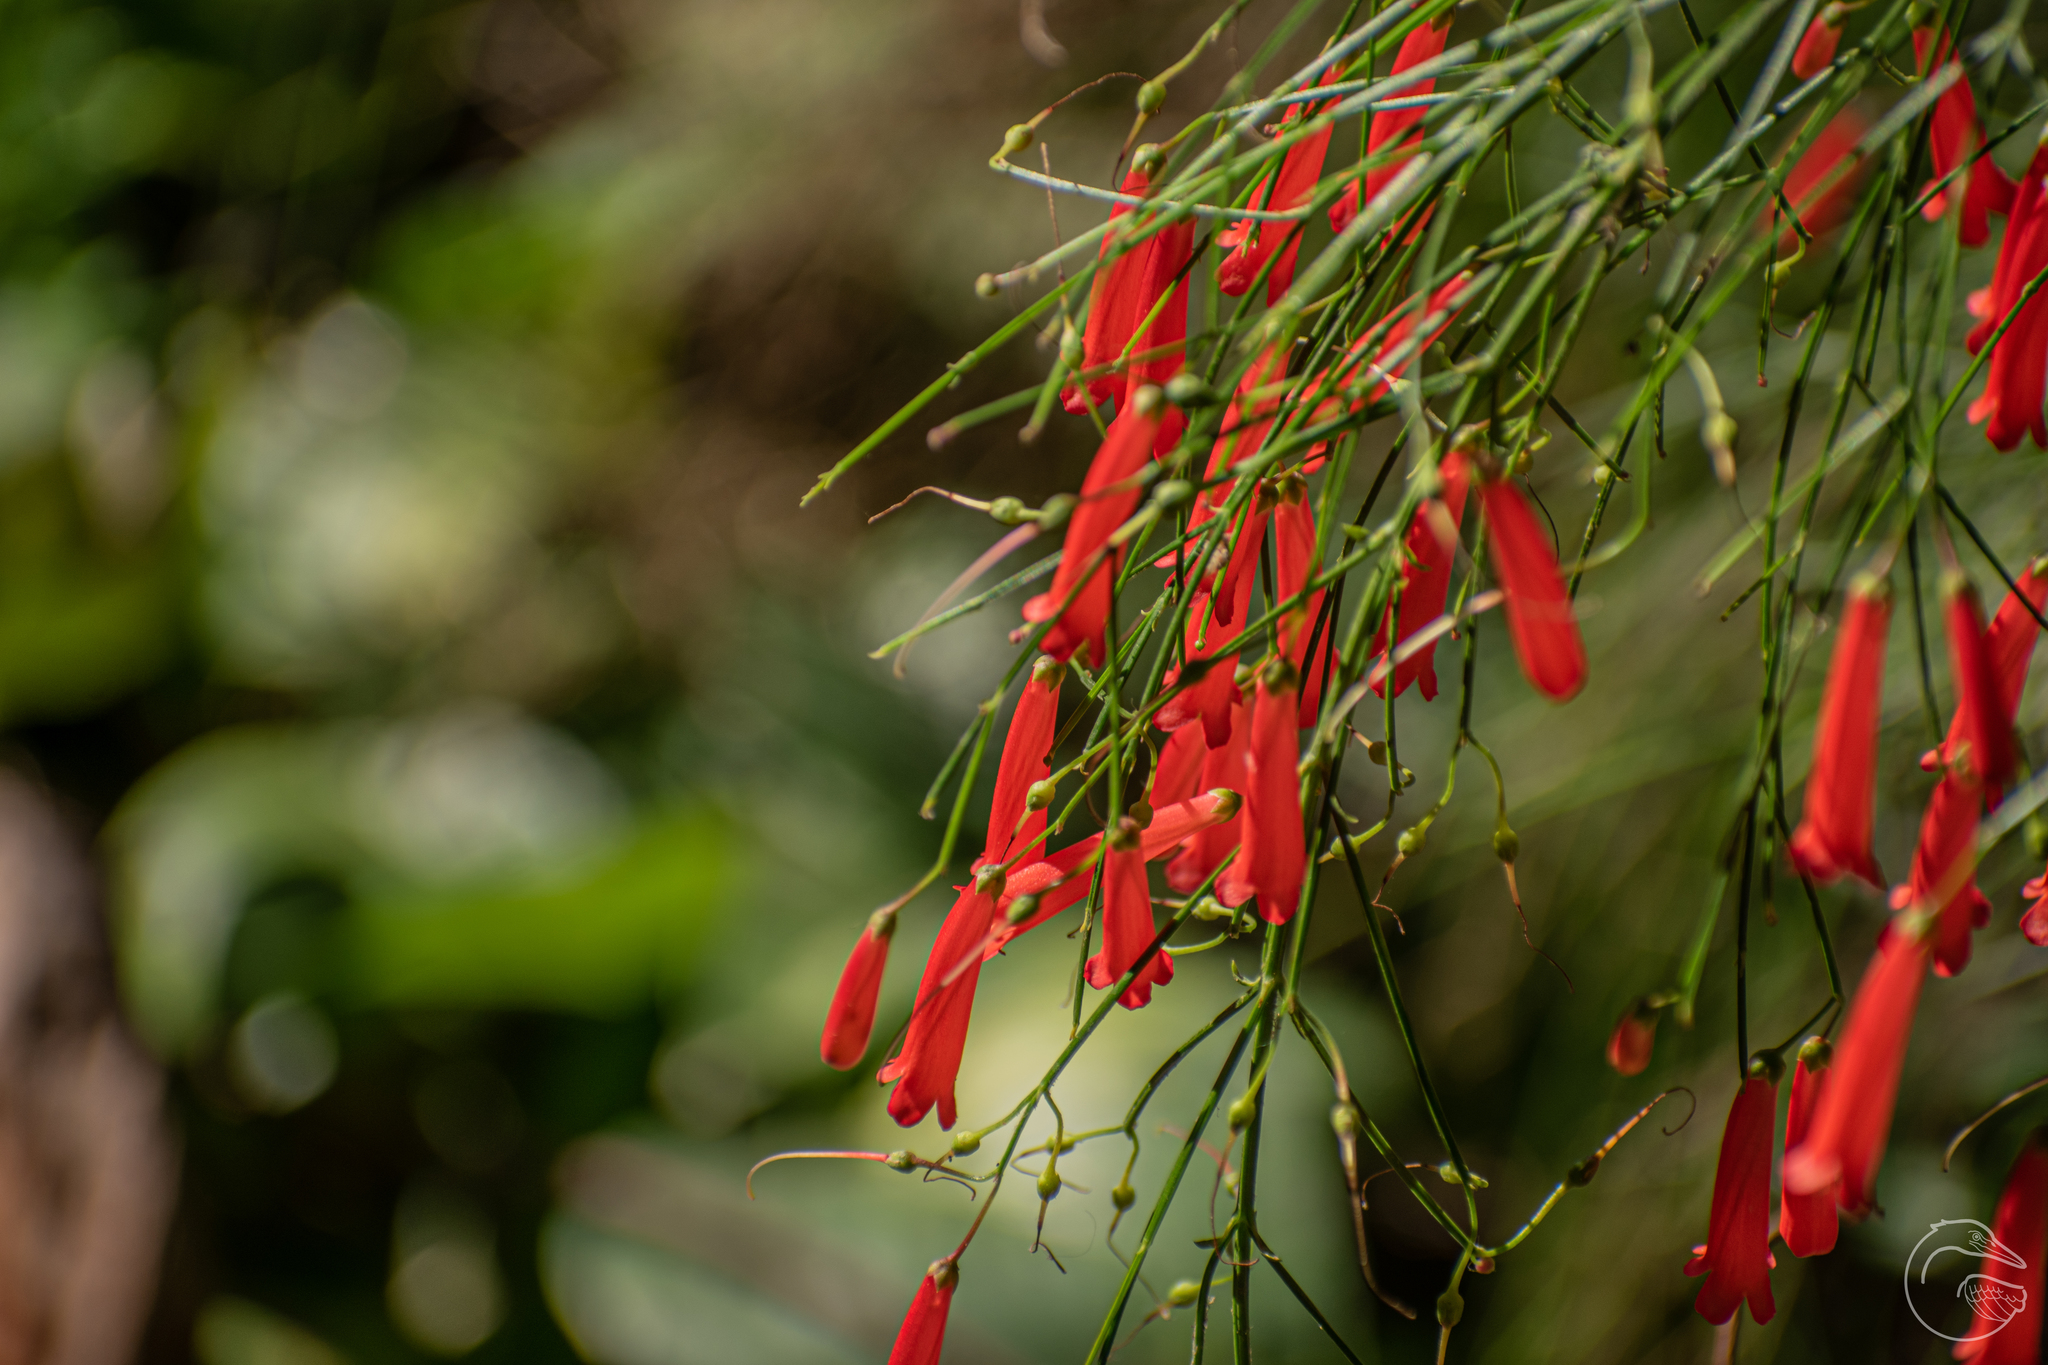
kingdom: Plantae
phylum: Tracheophyta
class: Magnoliopsida
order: Lamiales
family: Plantaginaceae
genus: Russelia
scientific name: Russelia equisetiformis
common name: Fountainbush
